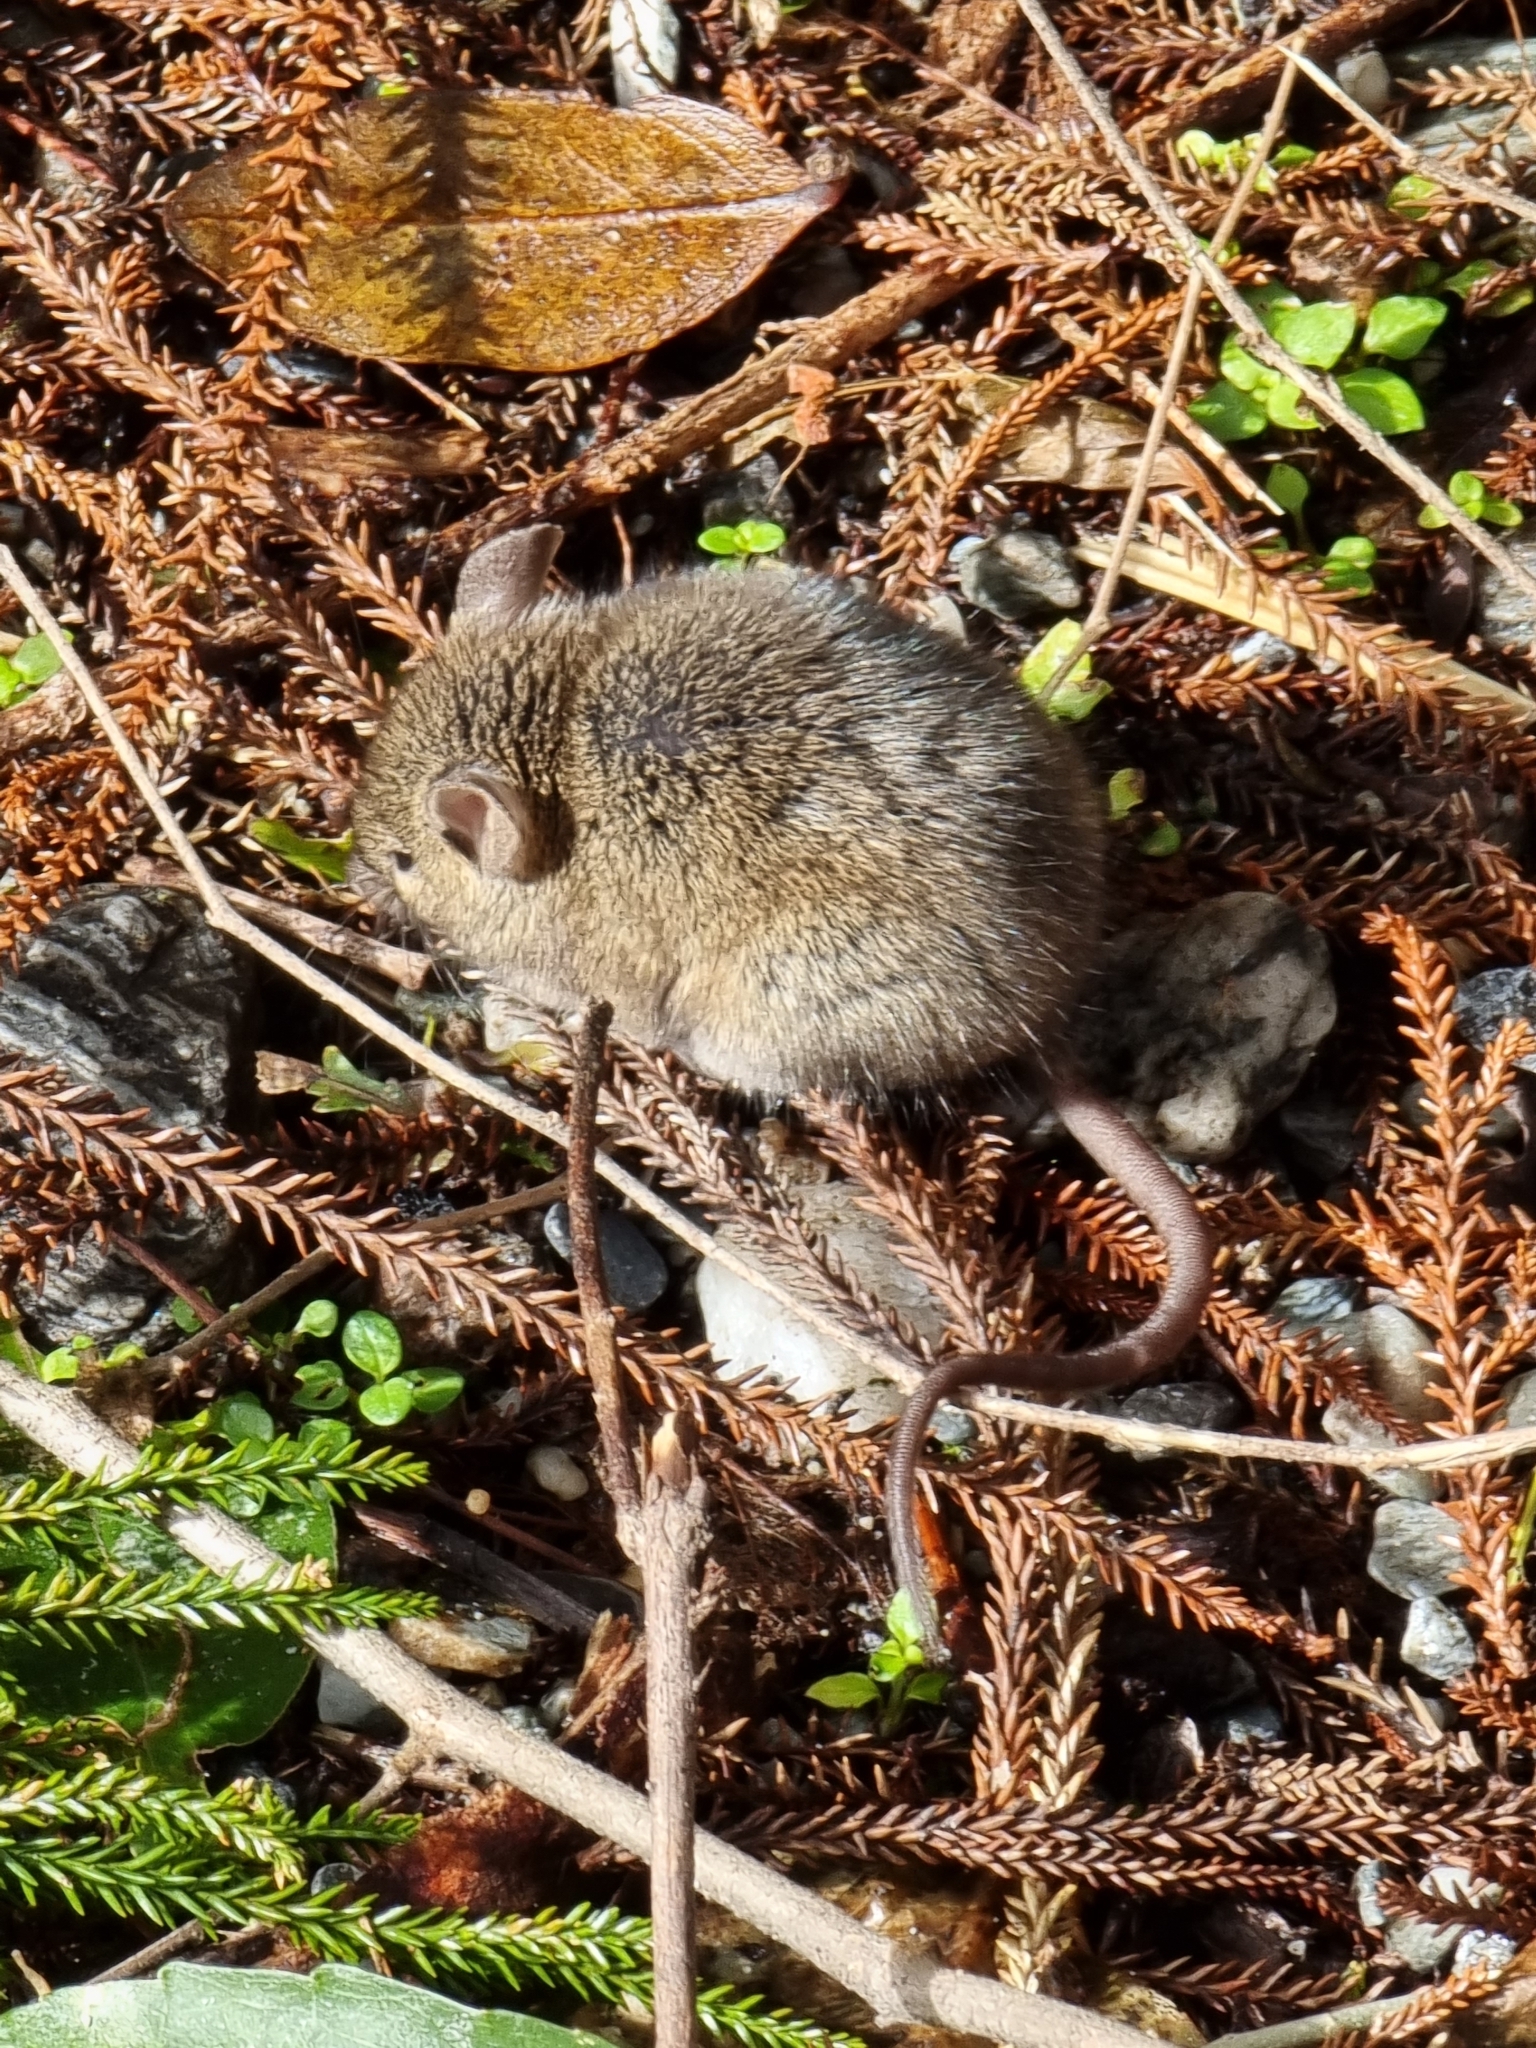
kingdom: Animalia
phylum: Chordata
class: Mammalia
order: Rodentia
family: Muridae
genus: Mus
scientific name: Mus musculus
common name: House mouse
